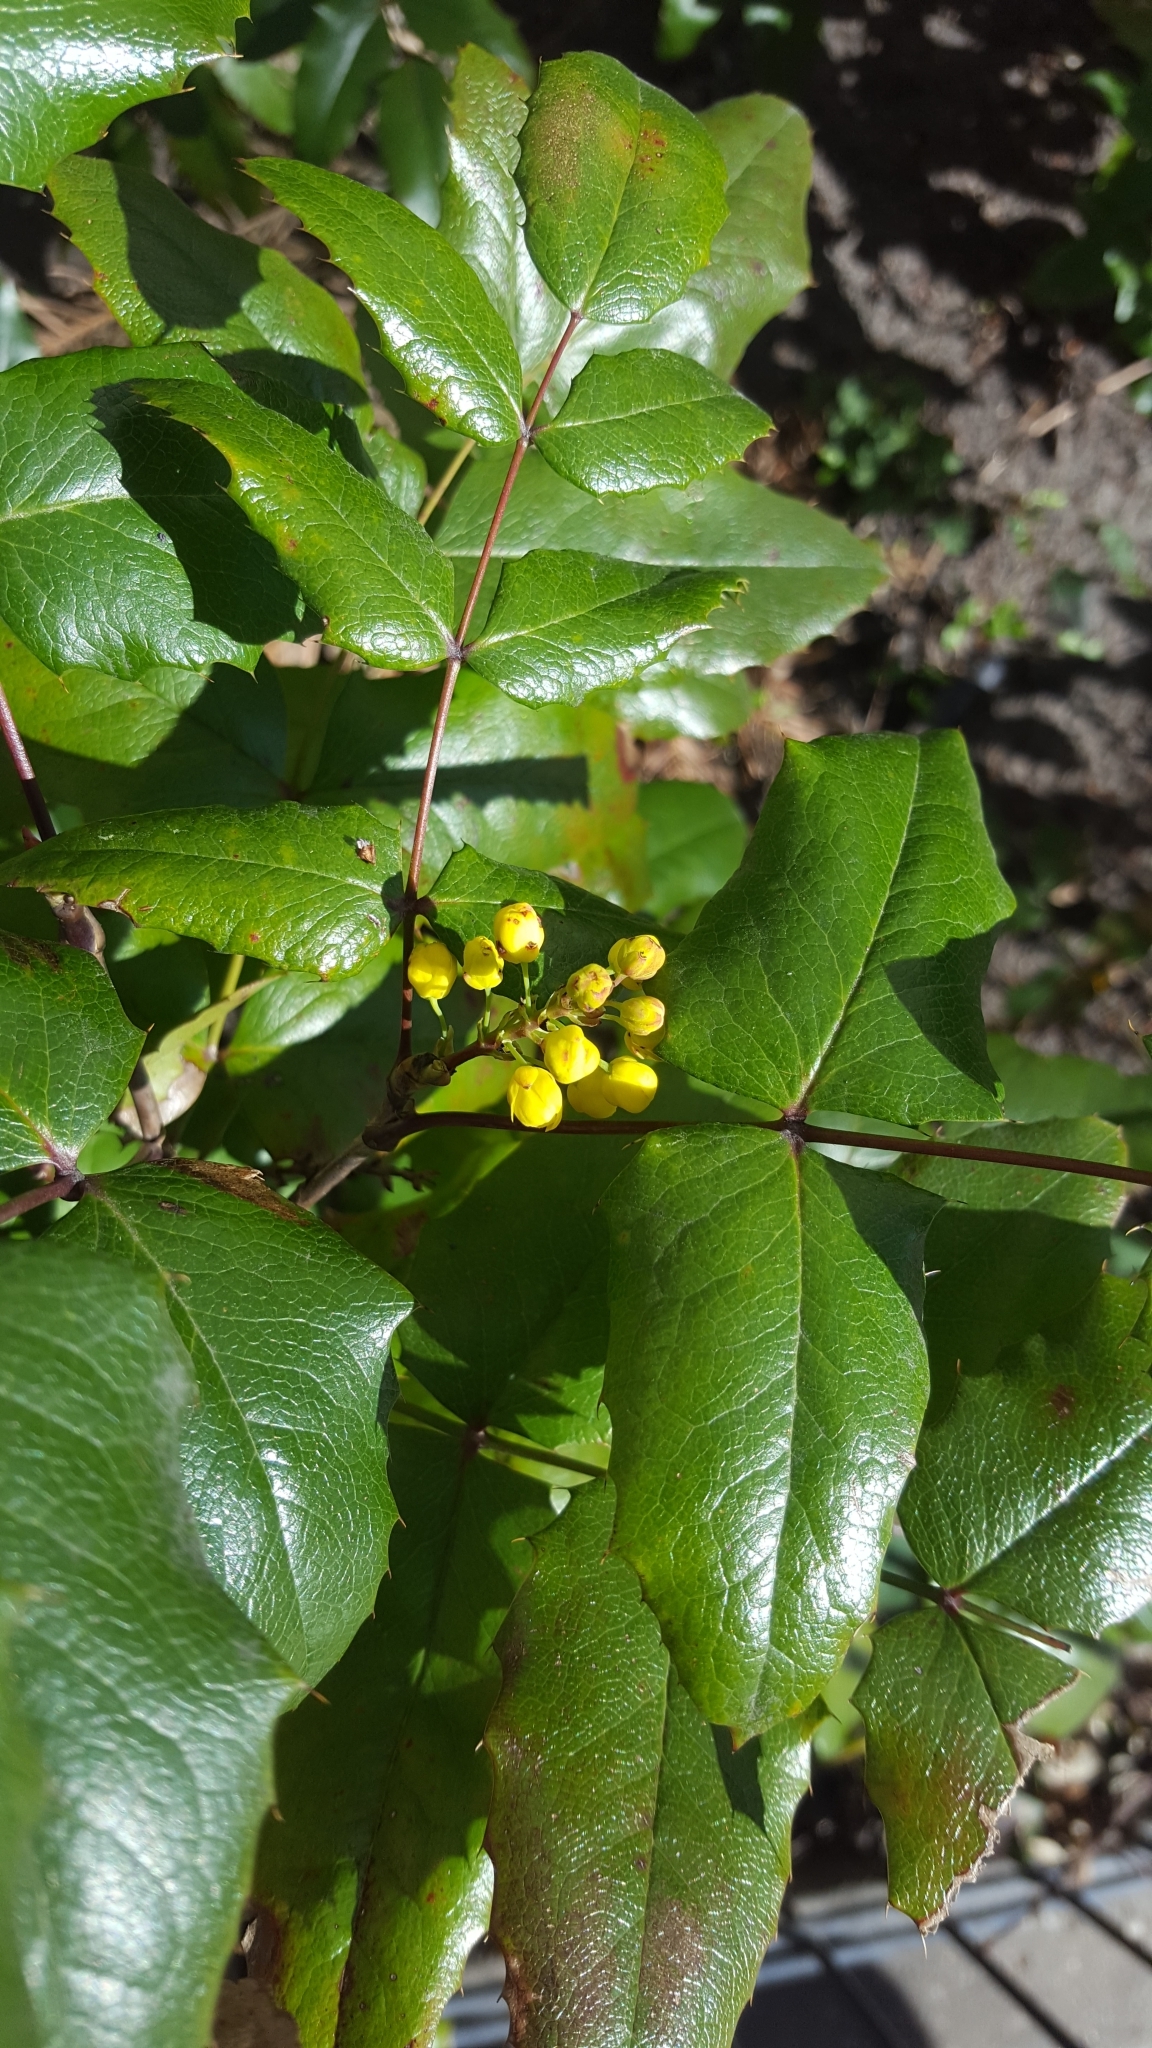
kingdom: Plantae
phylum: Tracheophyta
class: Magnoliopsida
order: Ranunculales
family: Berberidaceae
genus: Mahonia
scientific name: Mahonia aquifolium
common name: Oregon-grape
